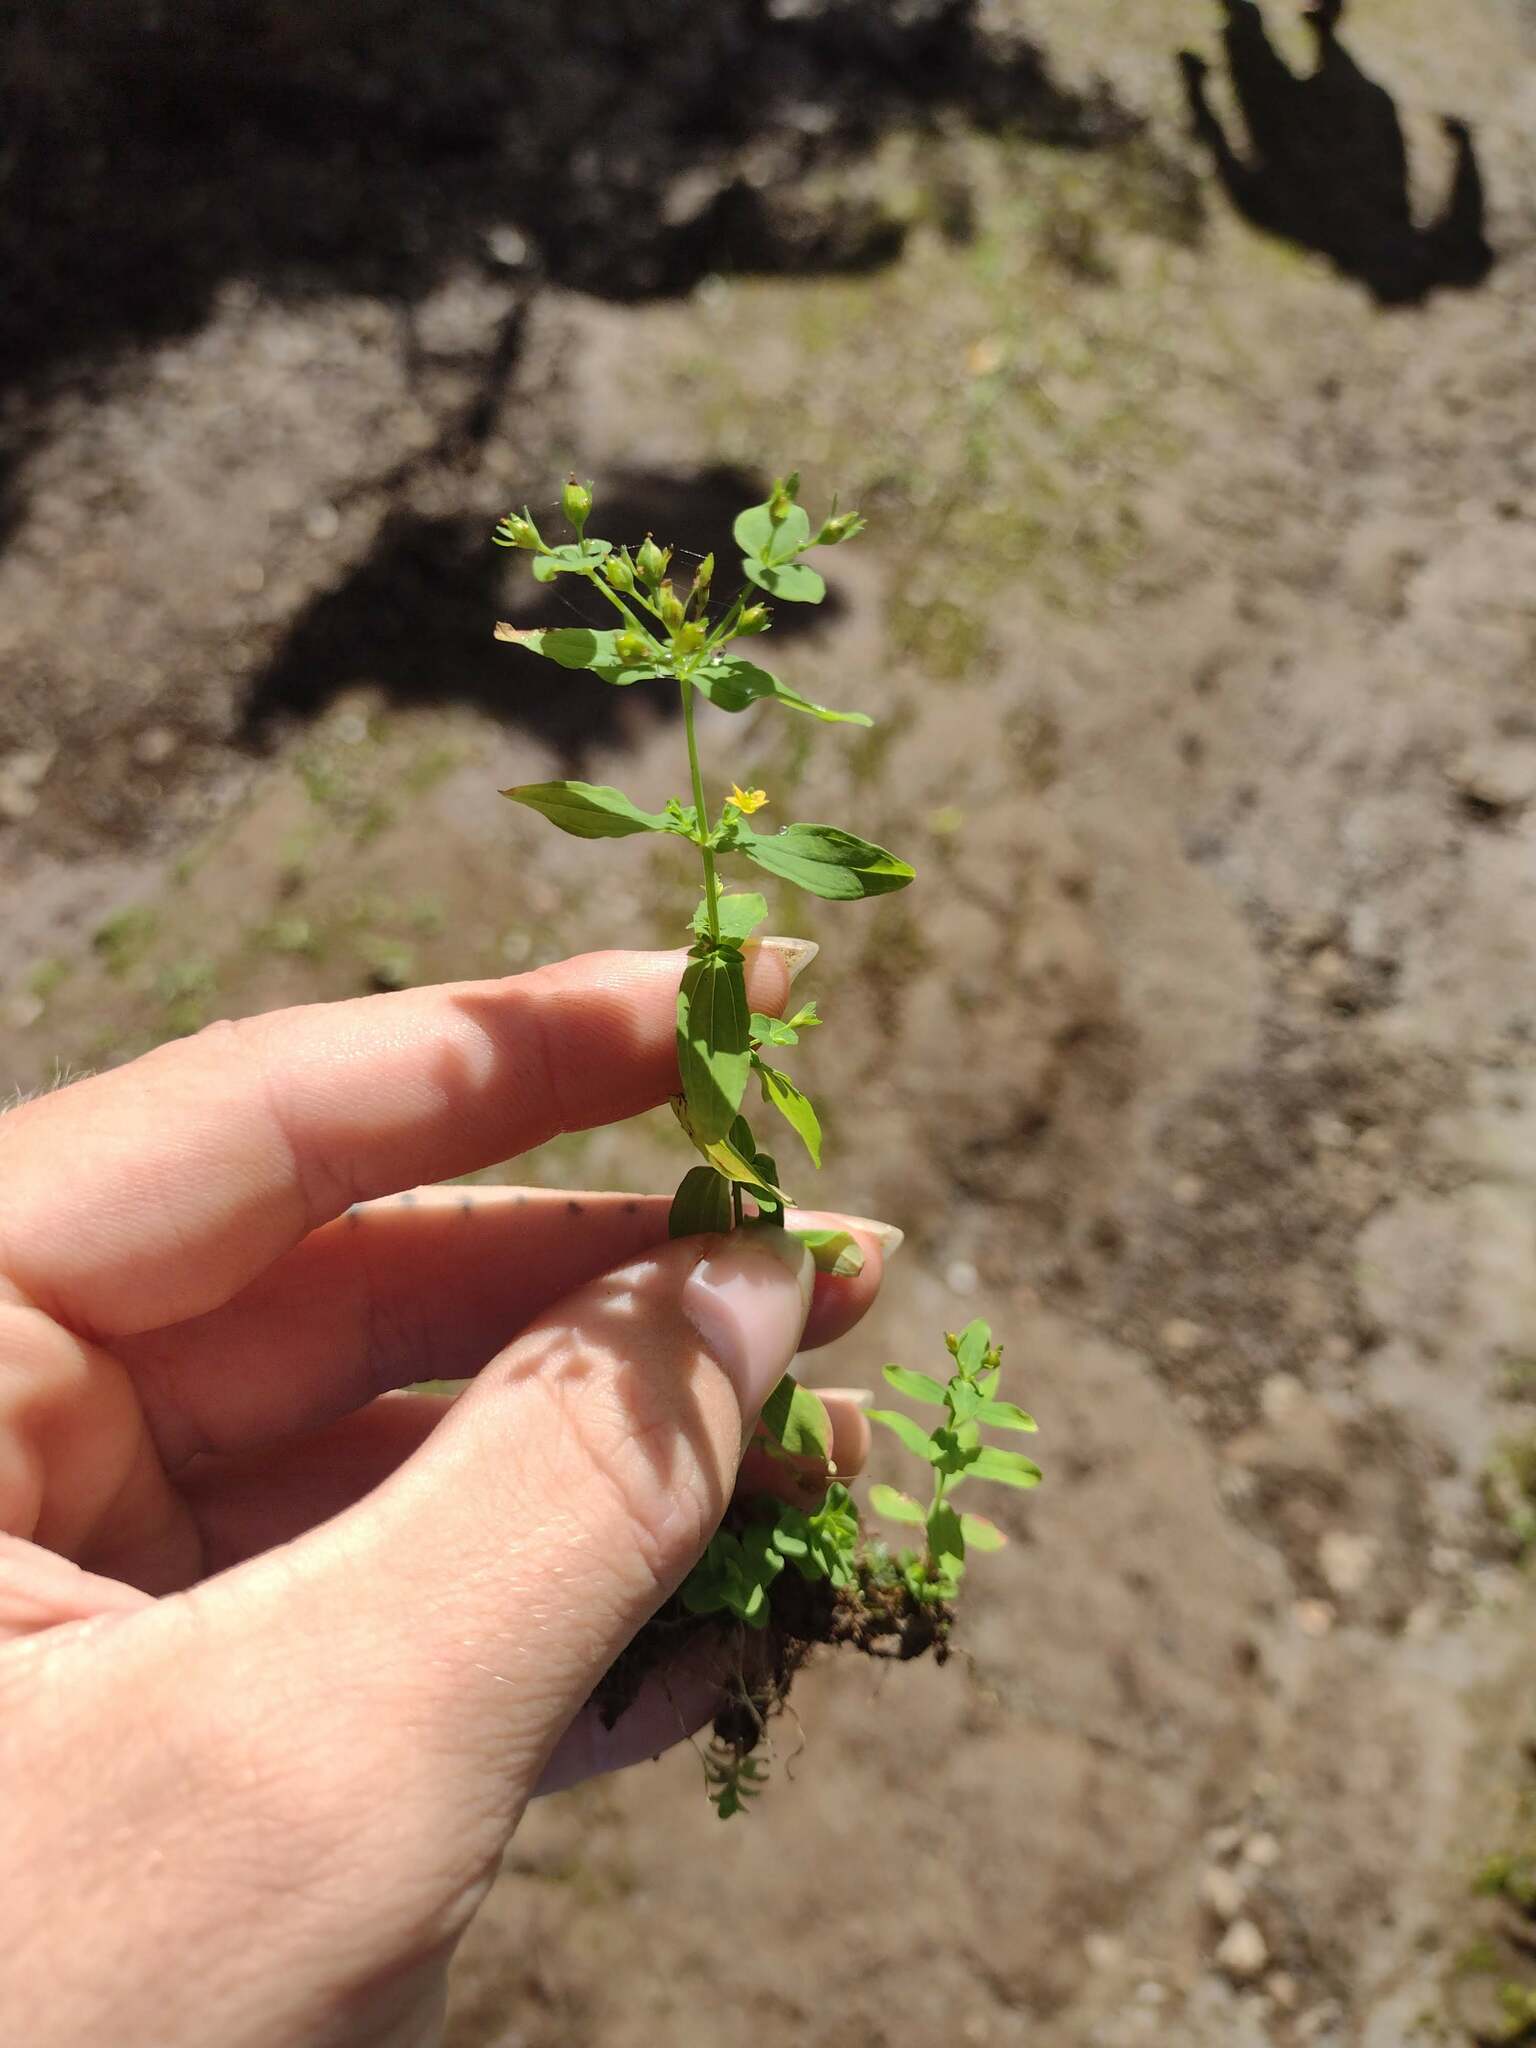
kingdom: Plantae
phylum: Tracheophyta
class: Magnoliopsida
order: Malpighiales
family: Hypericaceae
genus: Hypericum
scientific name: Hypericum mutilum
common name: Dwarf st. john's-wort
